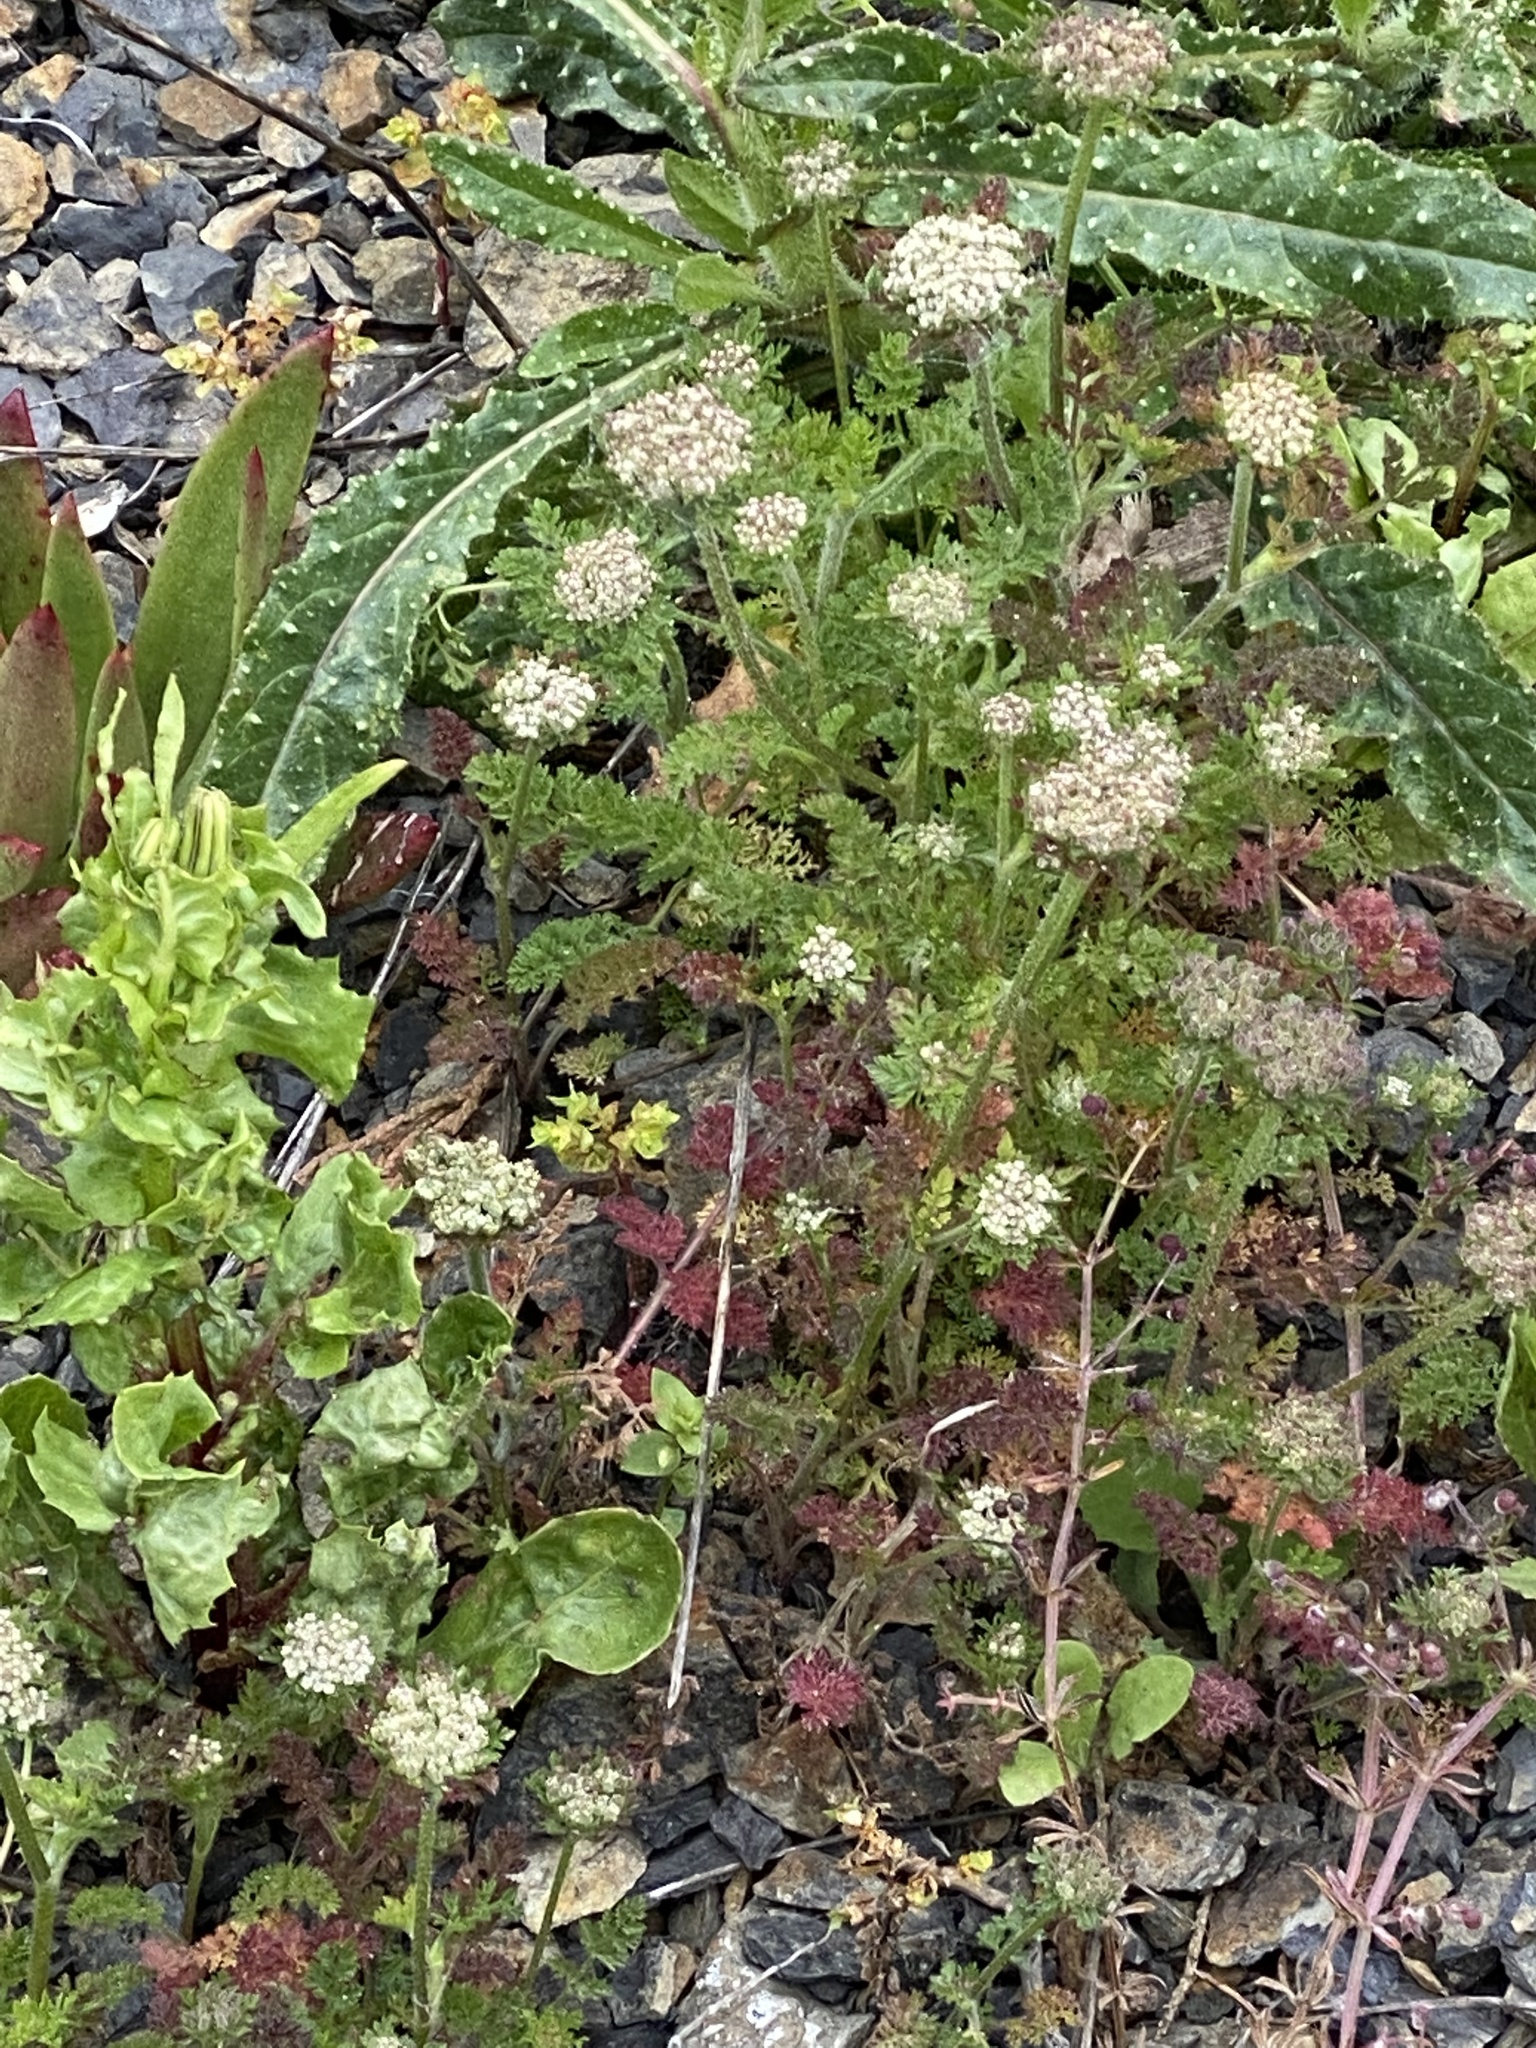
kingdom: Plantae
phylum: Tracheophyta
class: Magnoliopsida
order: Apiales
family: Apiaceae
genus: Daucus
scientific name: Daucus pusillus
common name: Southwest wild carrot
